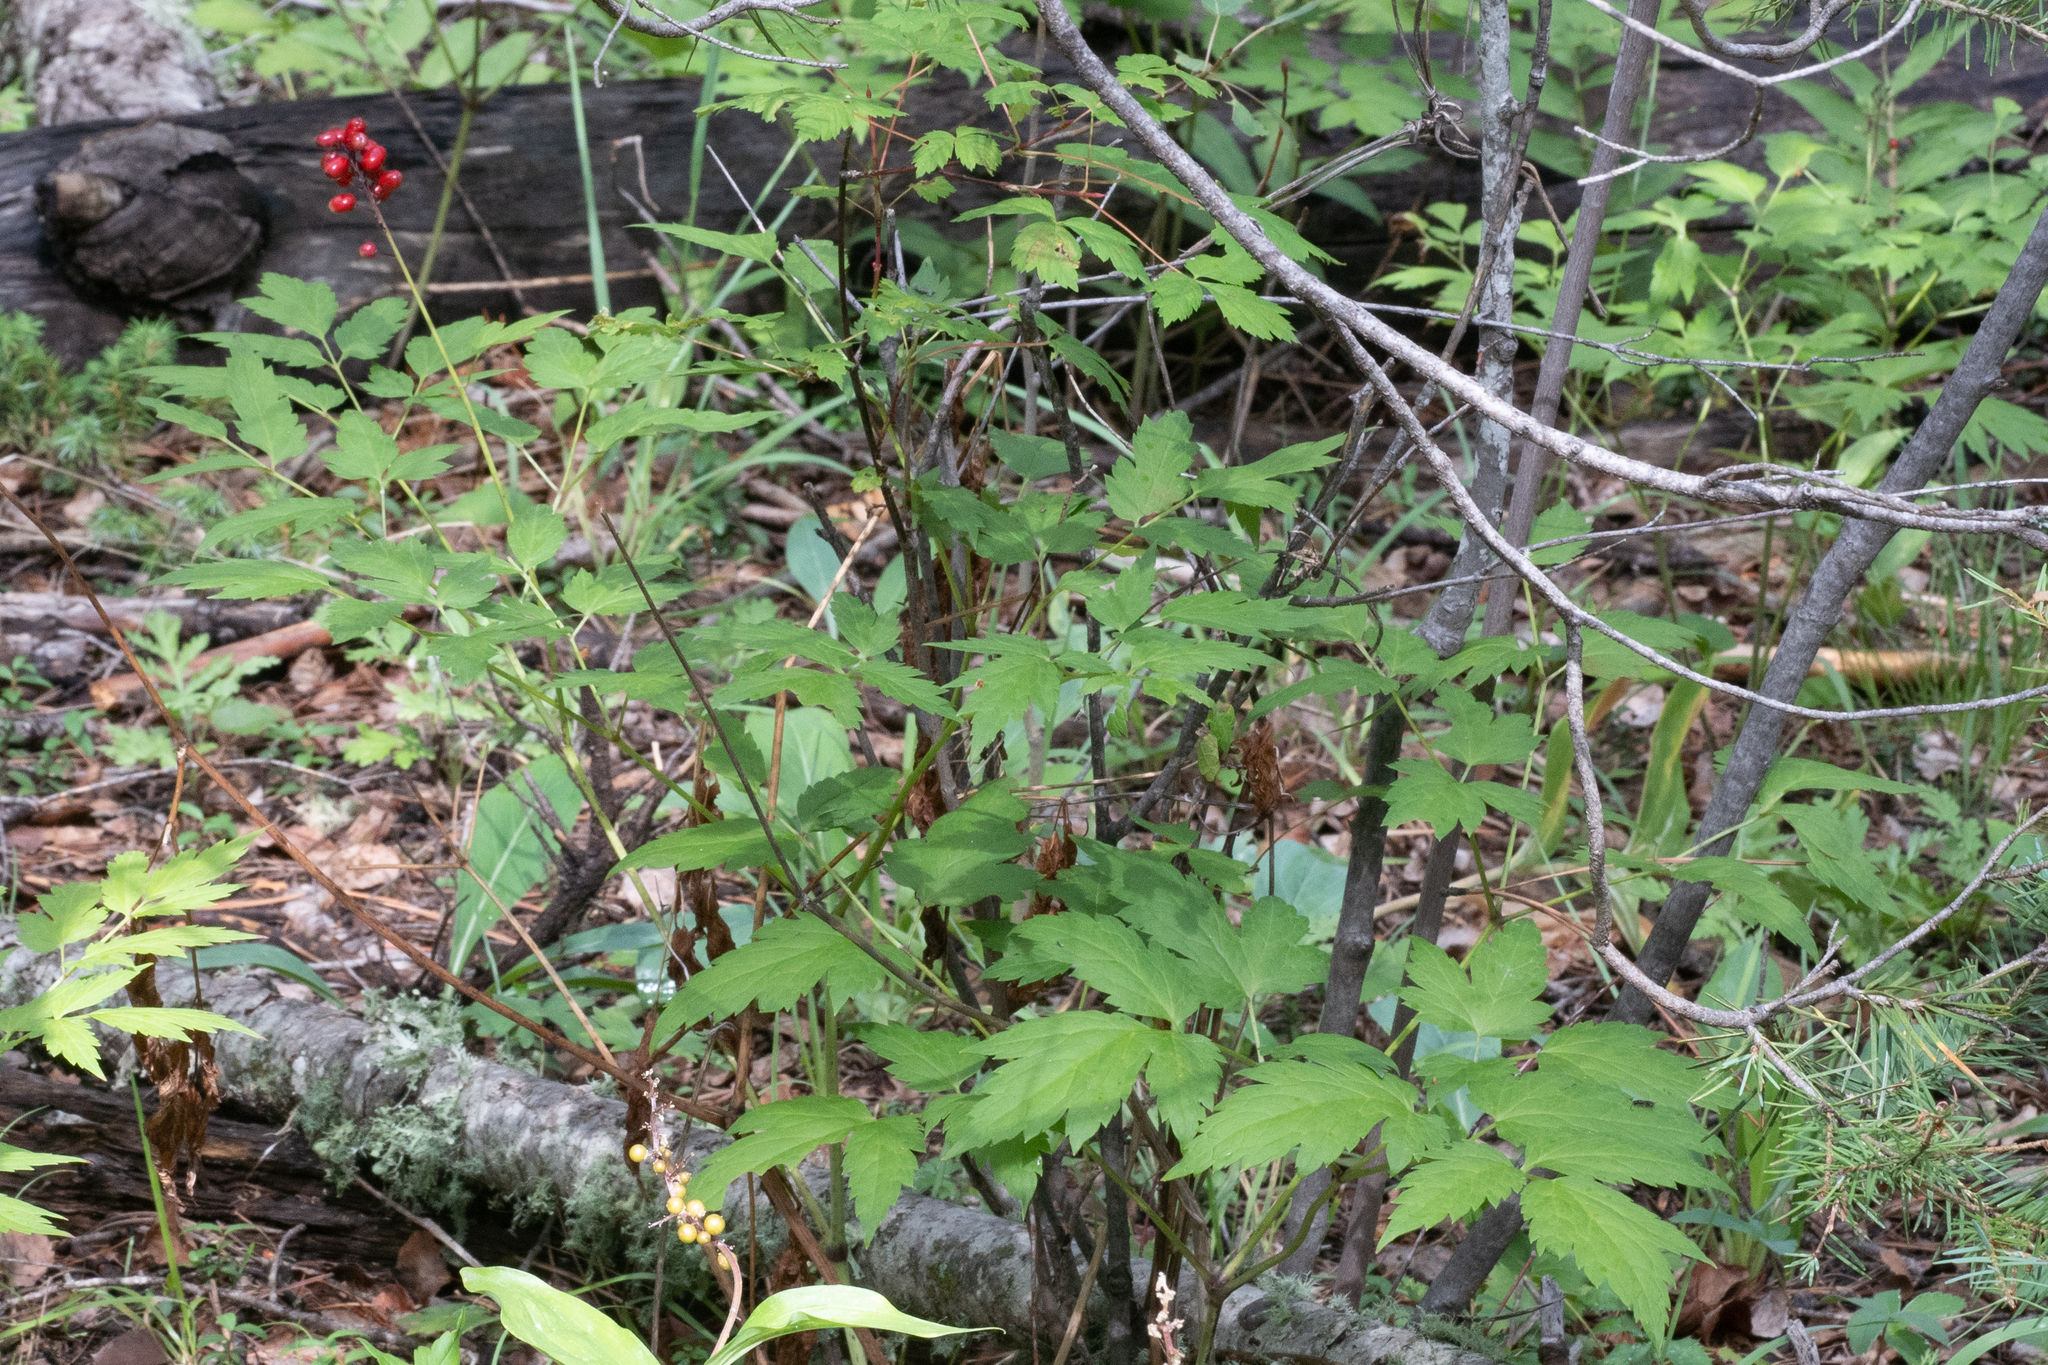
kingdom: Plantae
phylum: Tracheophyta
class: Magnoliopsida
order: Ranunculales
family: Ranunculaceae
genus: Actaea
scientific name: Actaea rubra
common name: Red baneberry
